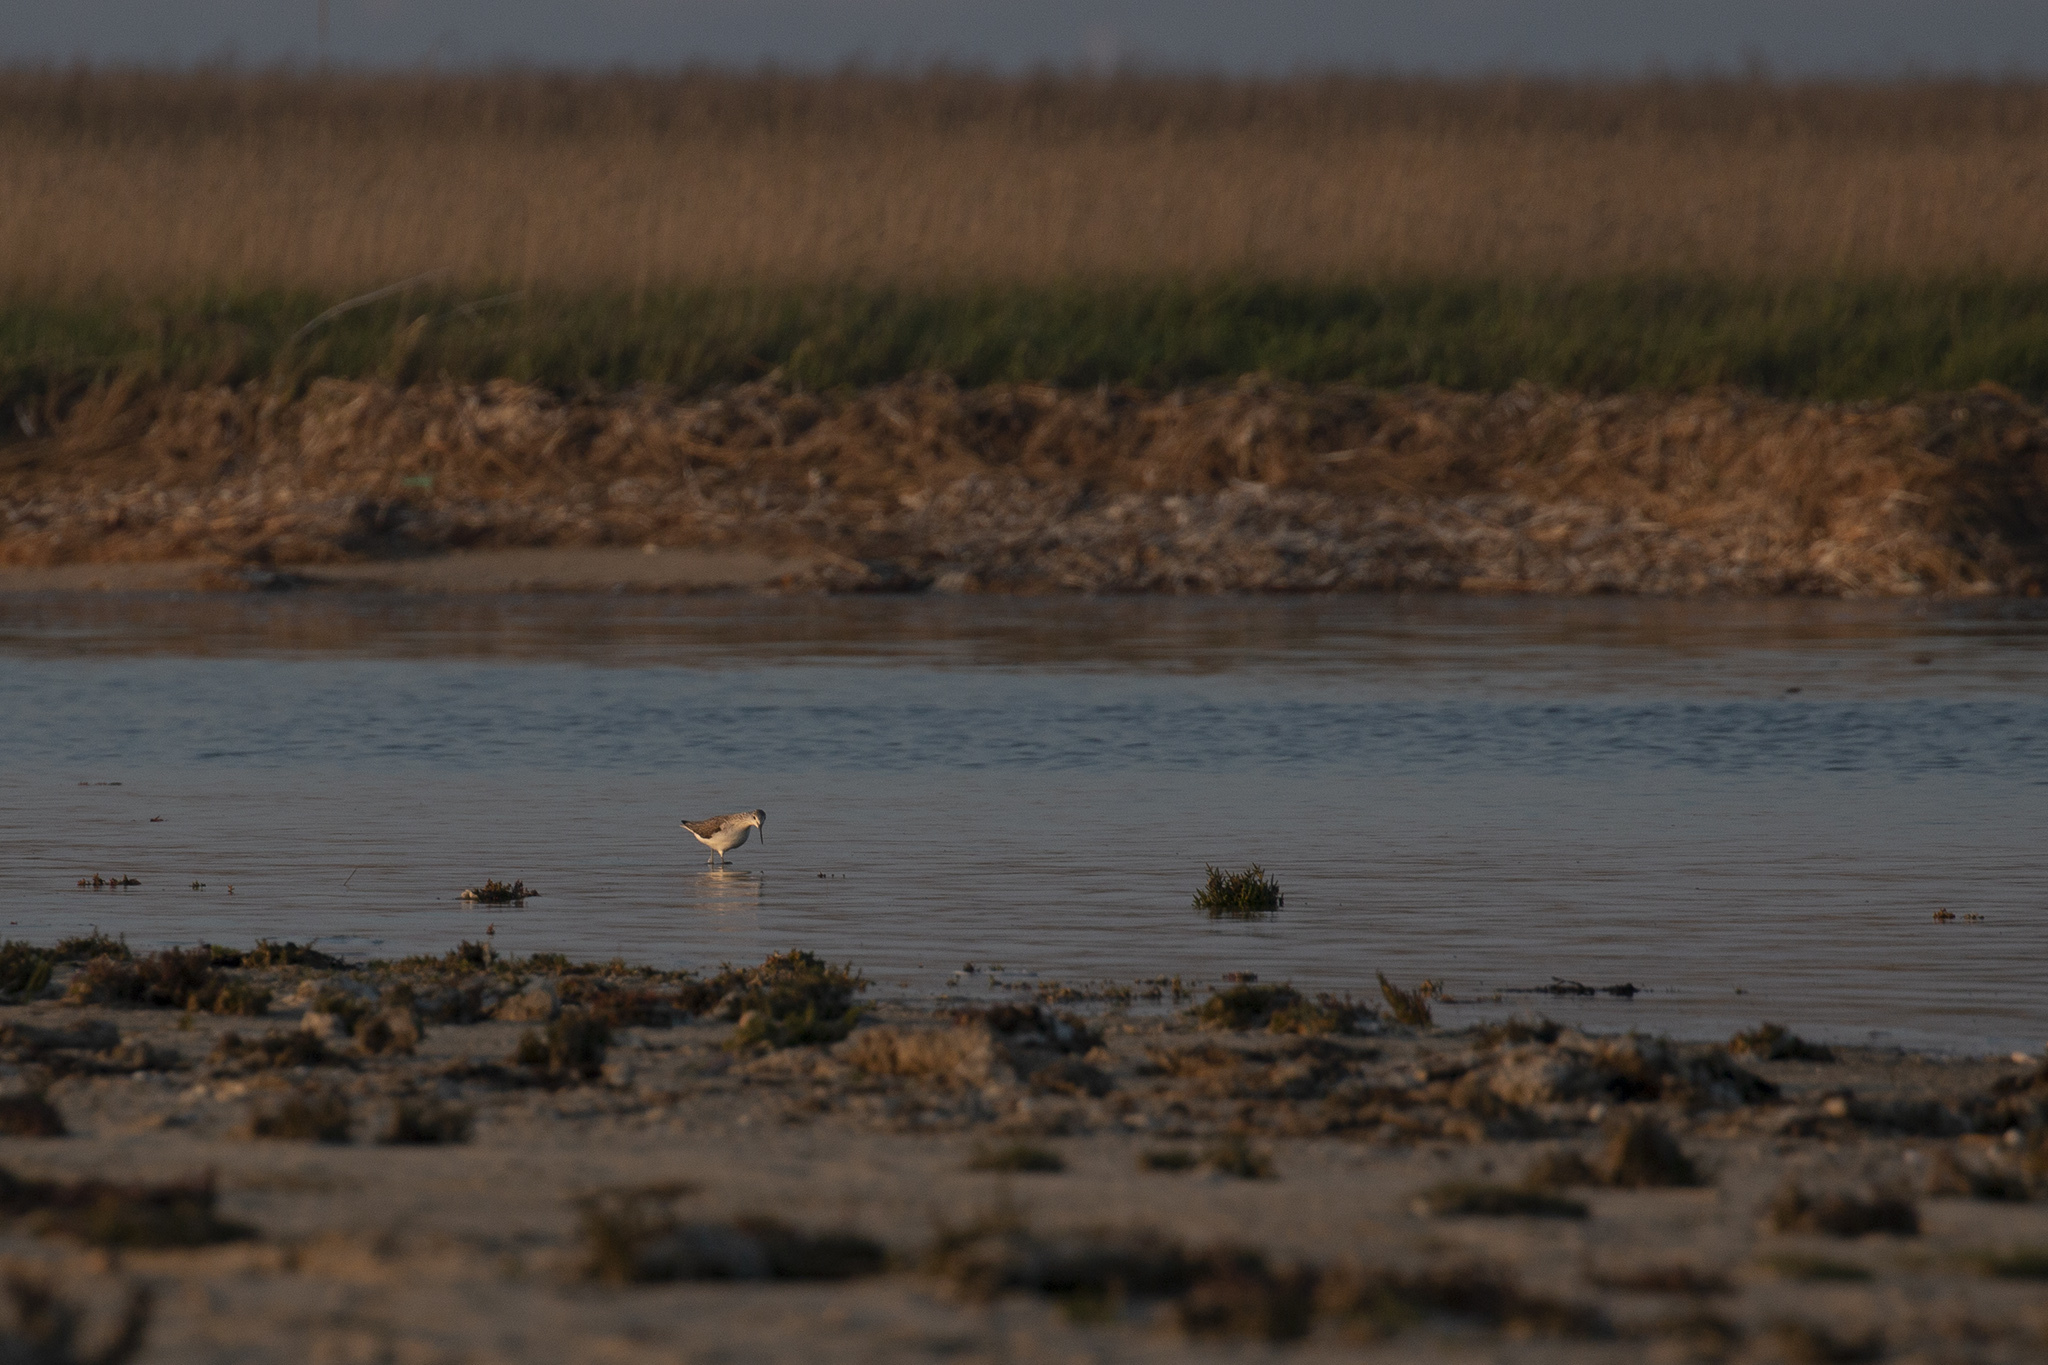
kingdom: Animalia
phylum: Chordata
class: Aves
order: Charadriiformes
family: Scolopacidae
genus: Tringa
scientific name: Tringa nebularia
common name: Common greenshank
